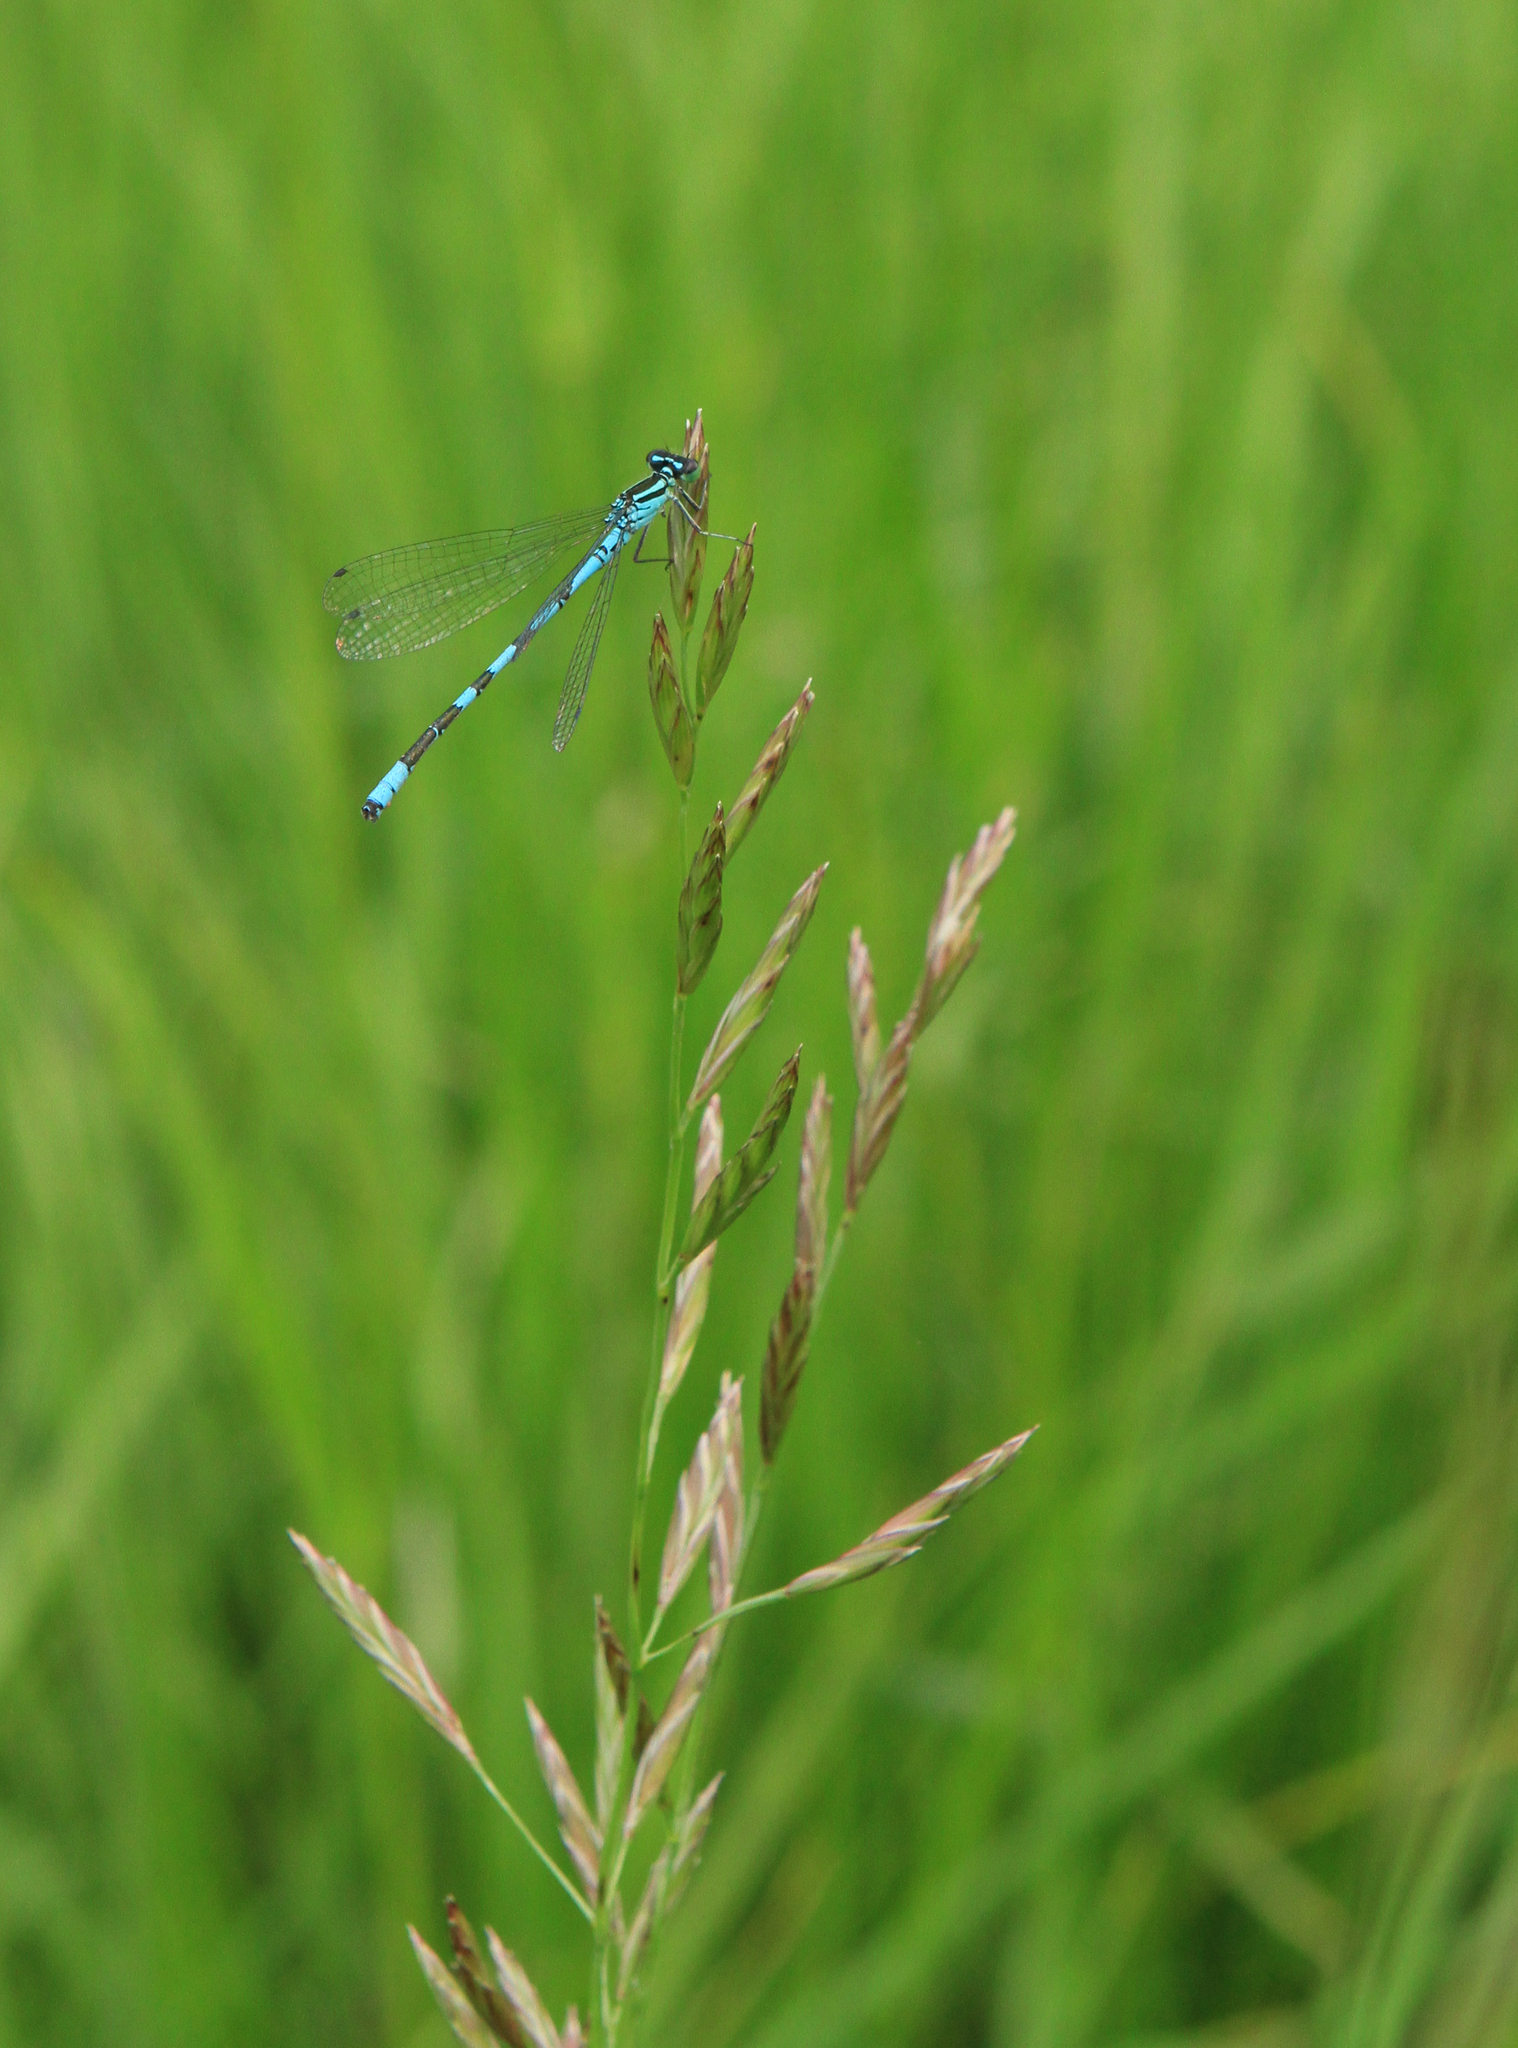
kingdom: Plantae
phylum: Tracheophyta
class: Liliopsida
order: Poales
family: Poaceae
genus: Bromus
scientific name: Bromus inermis
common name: Smooth brome
